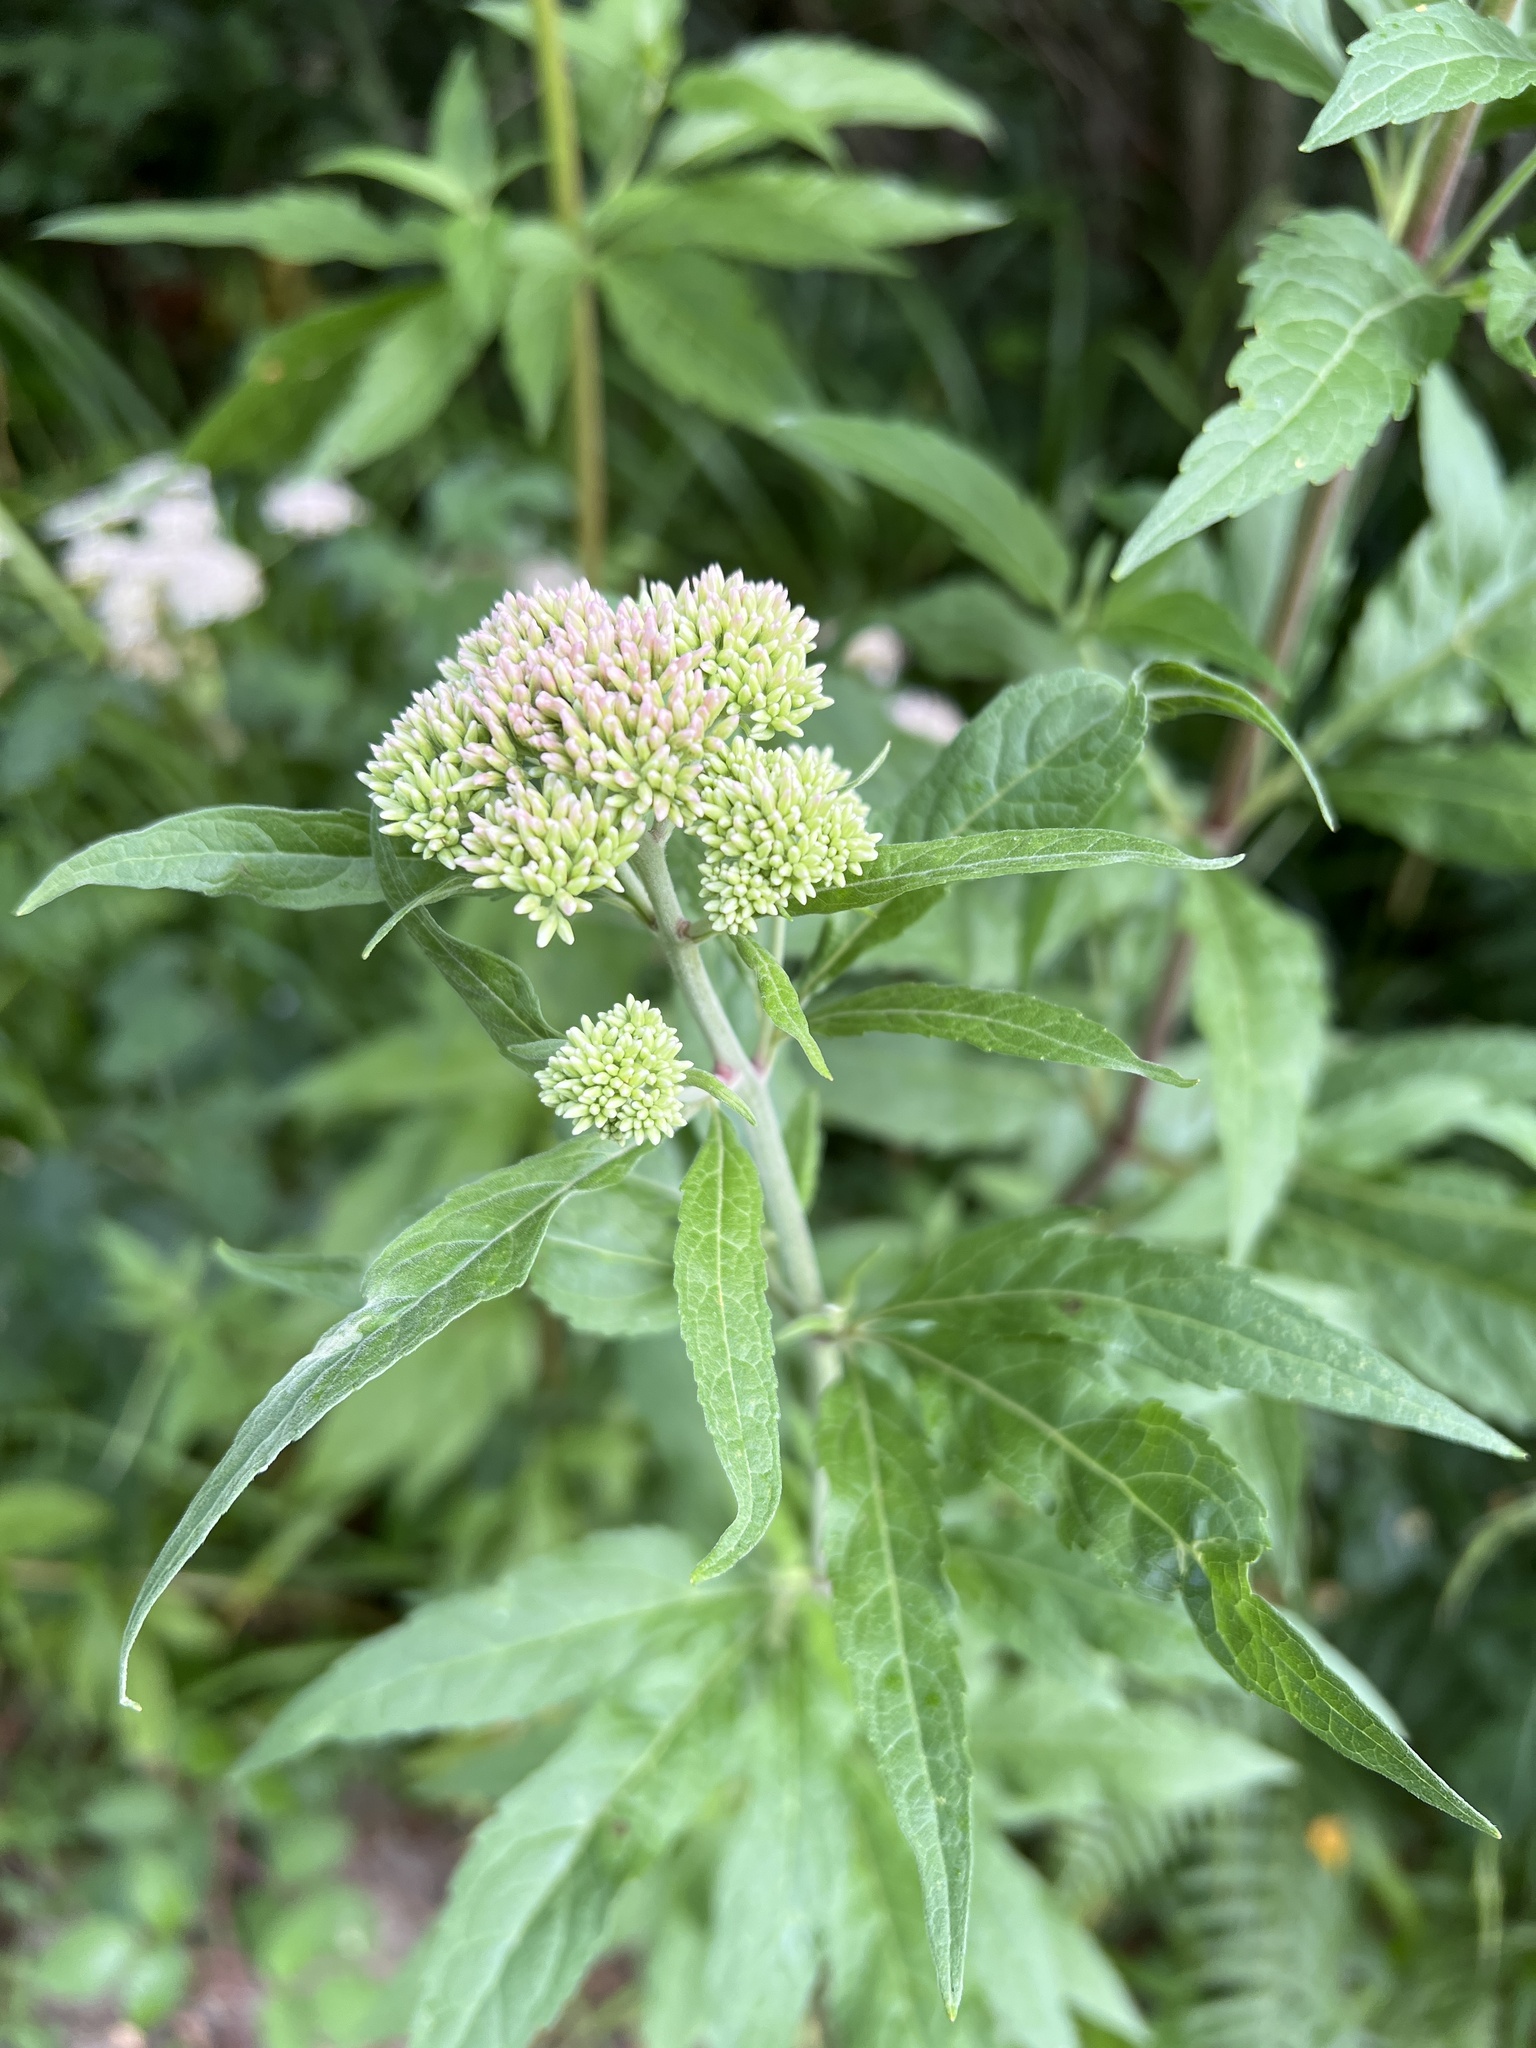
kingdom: Plantae
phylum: Tracheophyta
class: Magnoliopsida
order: Asterales
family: Asteraceae
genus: Eupatorium
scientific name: Eupatorium cannabinum
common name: Hemp-agrimony
